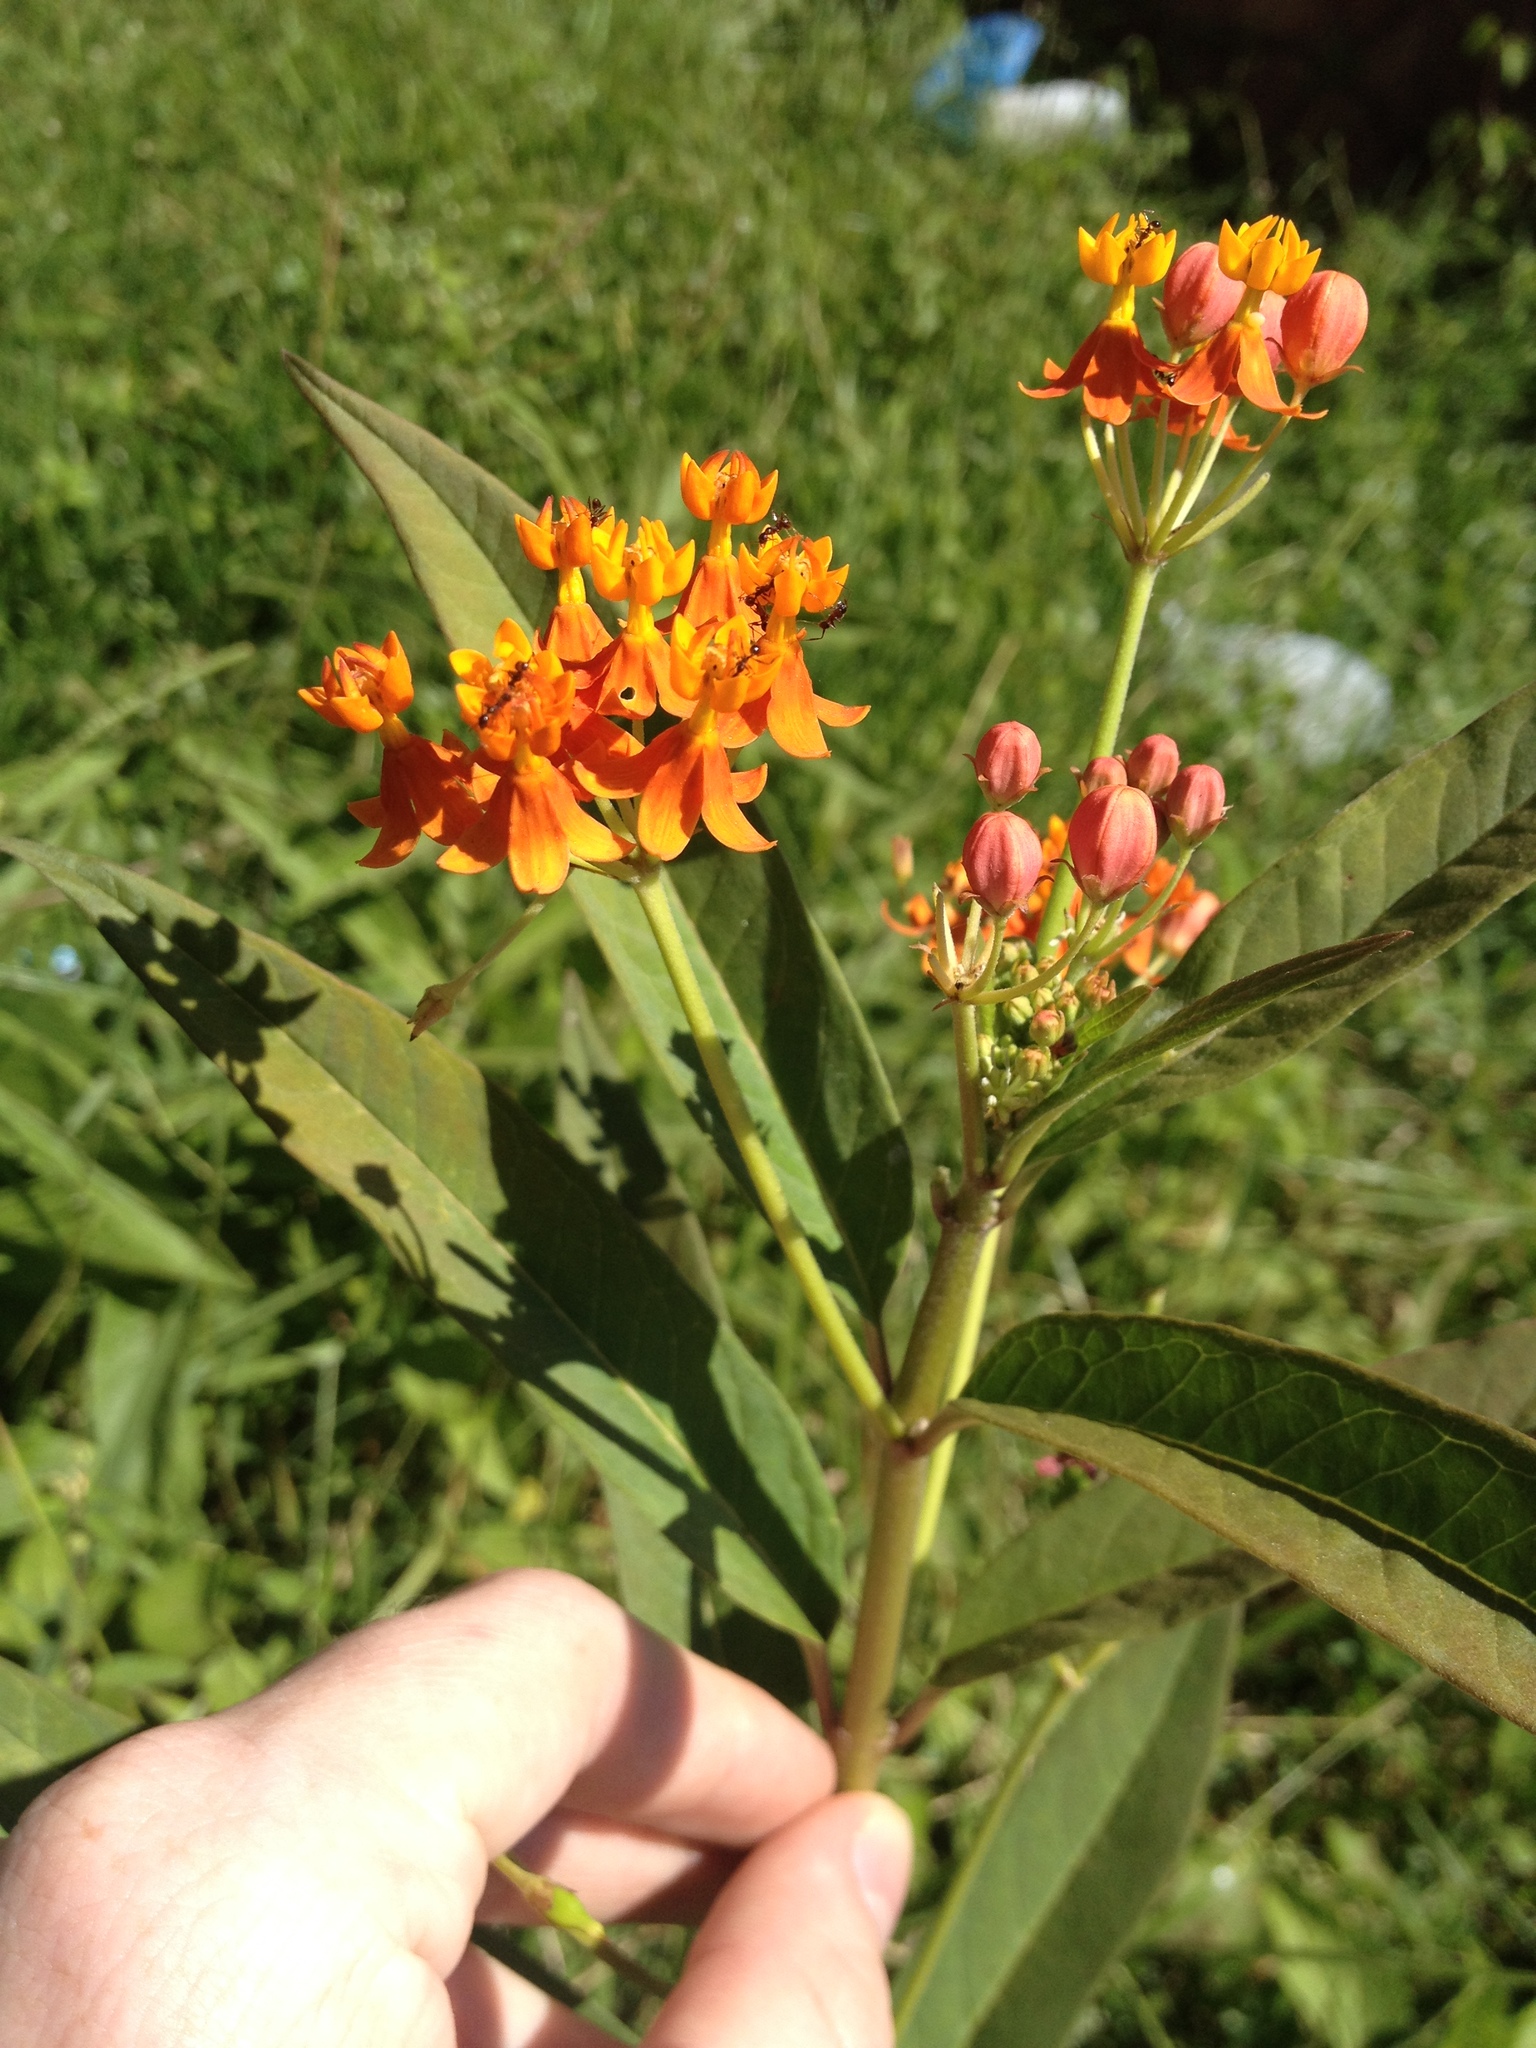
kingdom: Plantae
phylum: Tracheophyta
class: Magnoliopsida
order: Gentianales
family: Apocynaceae
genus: Asclepias
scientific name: Asclepias curassavica
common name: Bloodflower
